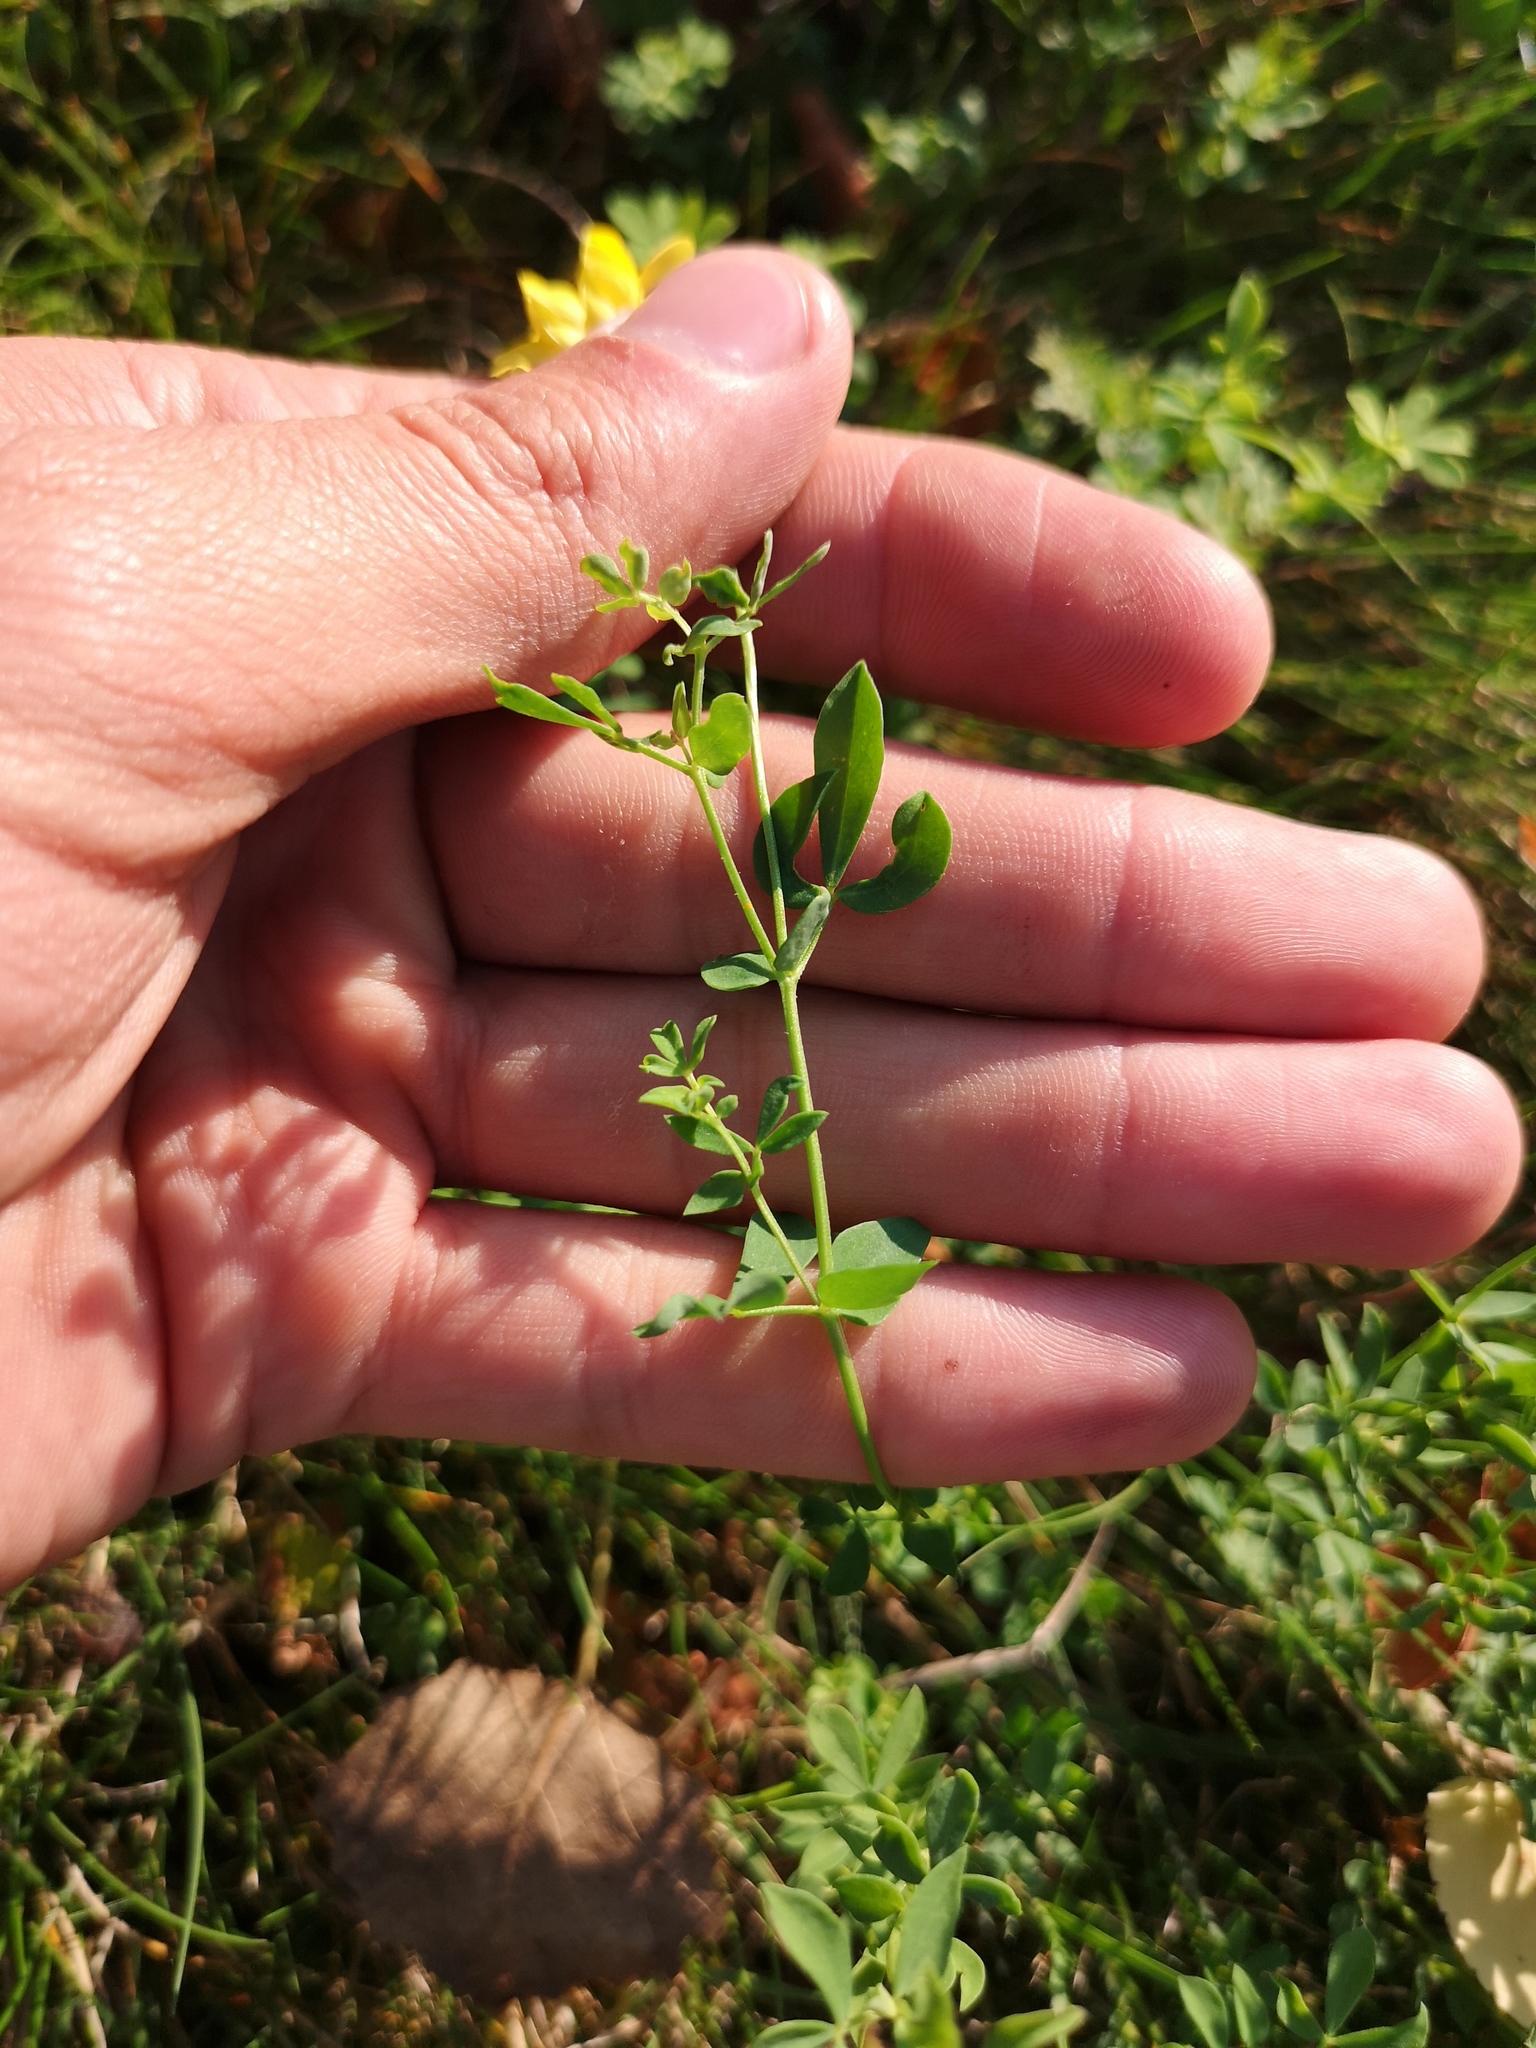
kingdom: Plantae
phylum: Tracheophyta
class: Magnoliopsida
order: Fabales
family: Fabaceae
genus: Lotus
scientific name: Lotus corniculatus
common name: Common bird's-foot-trefoil
